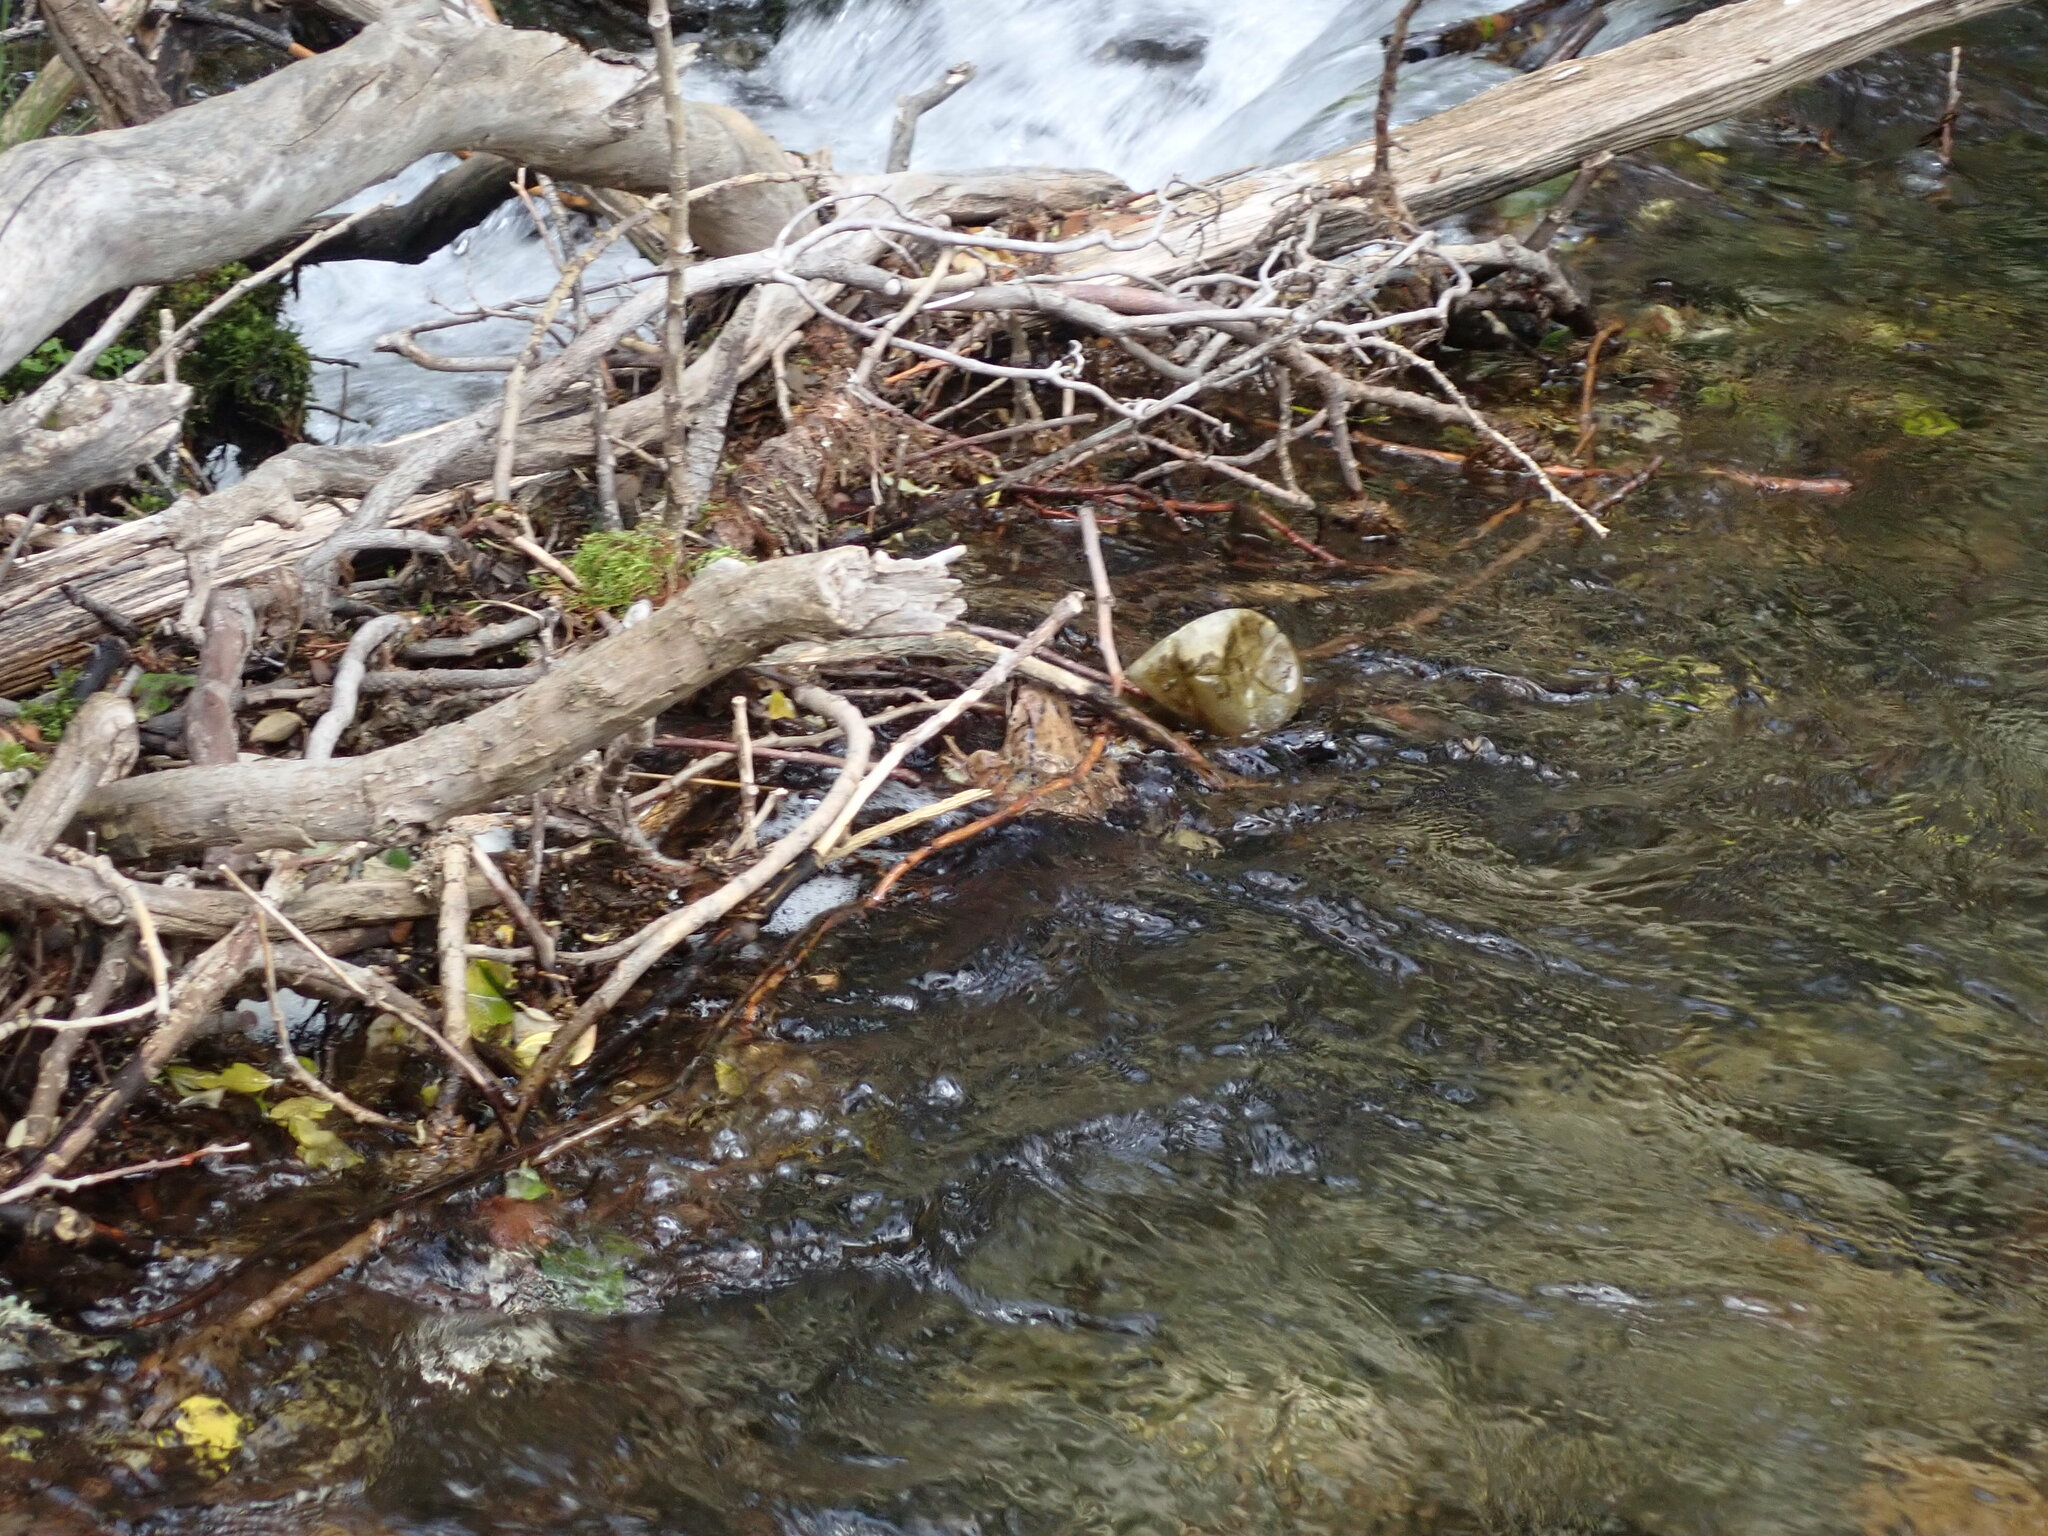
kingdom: Animalia
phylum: Chordata
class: Amphibia
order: Anura
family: Ranidae
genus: Rana
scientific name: Rana temporaria
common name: Common frog
